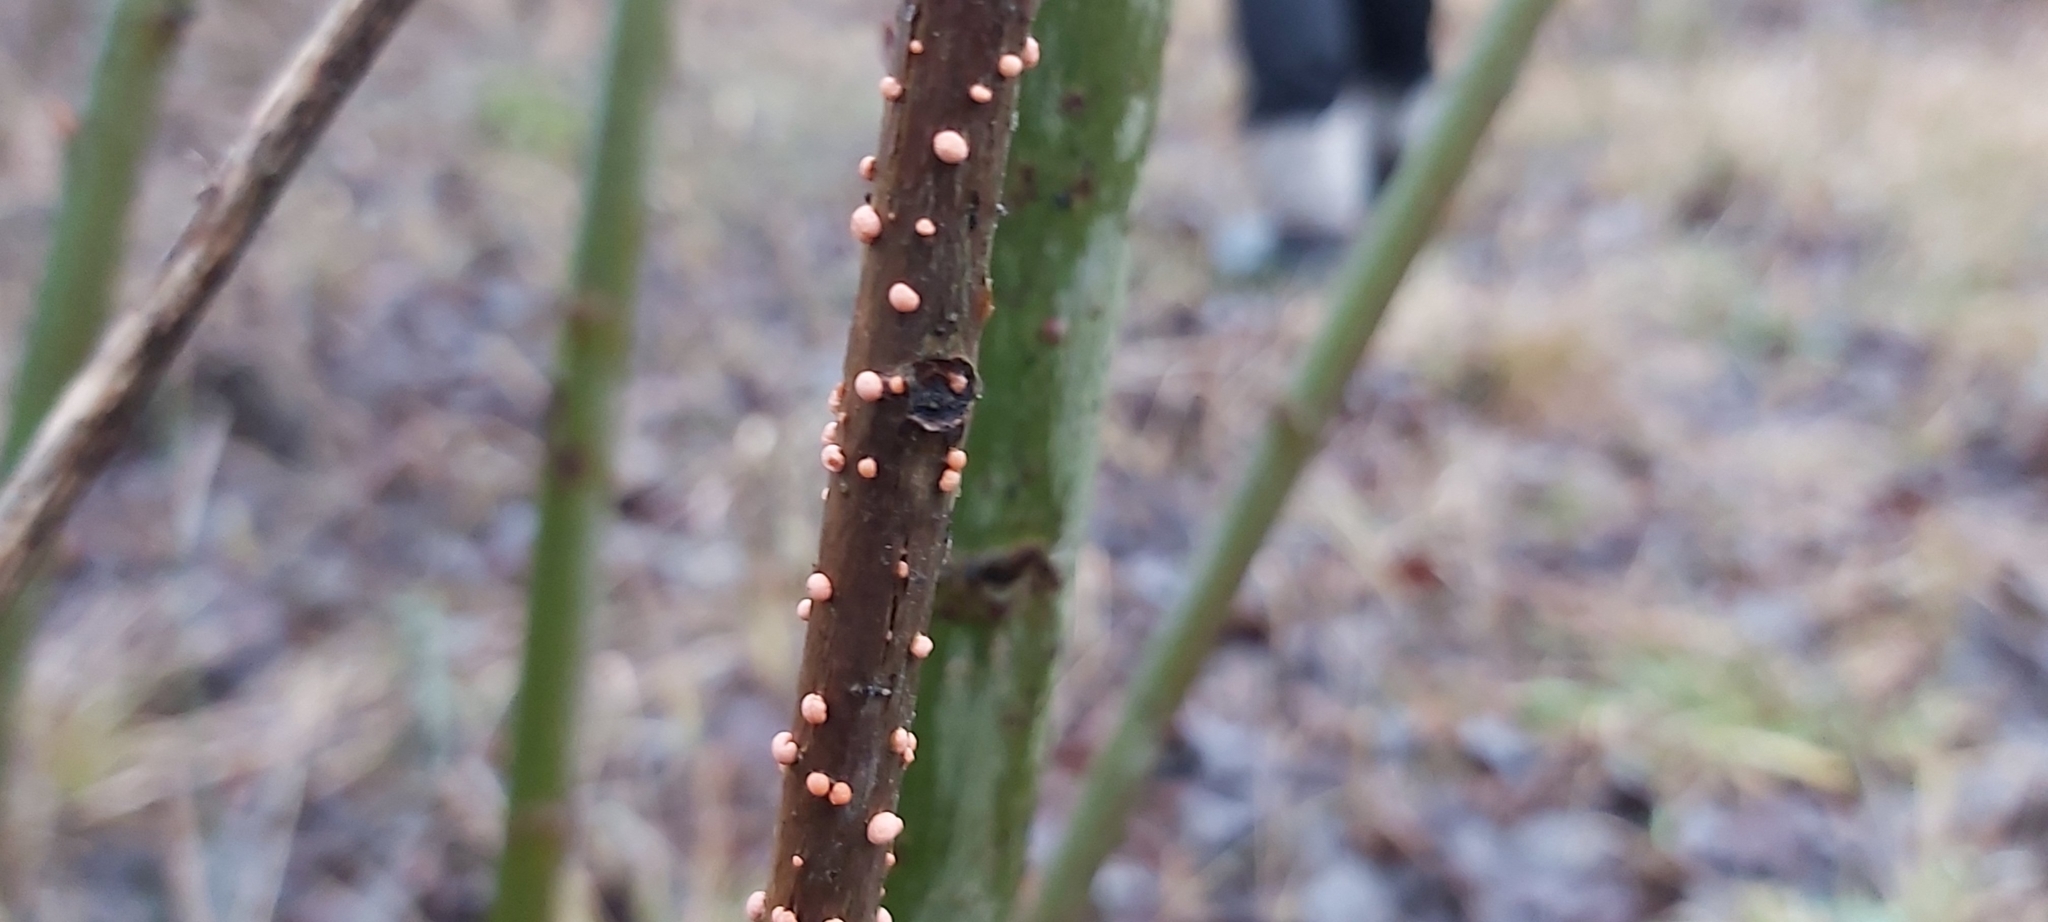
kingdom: Fungi
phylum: Ascomycota
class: Sordariomycetes
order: Hypocreales
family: Nectriaceae
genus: Nectria
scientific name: Nectria cinnabarina
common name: Coral spot
